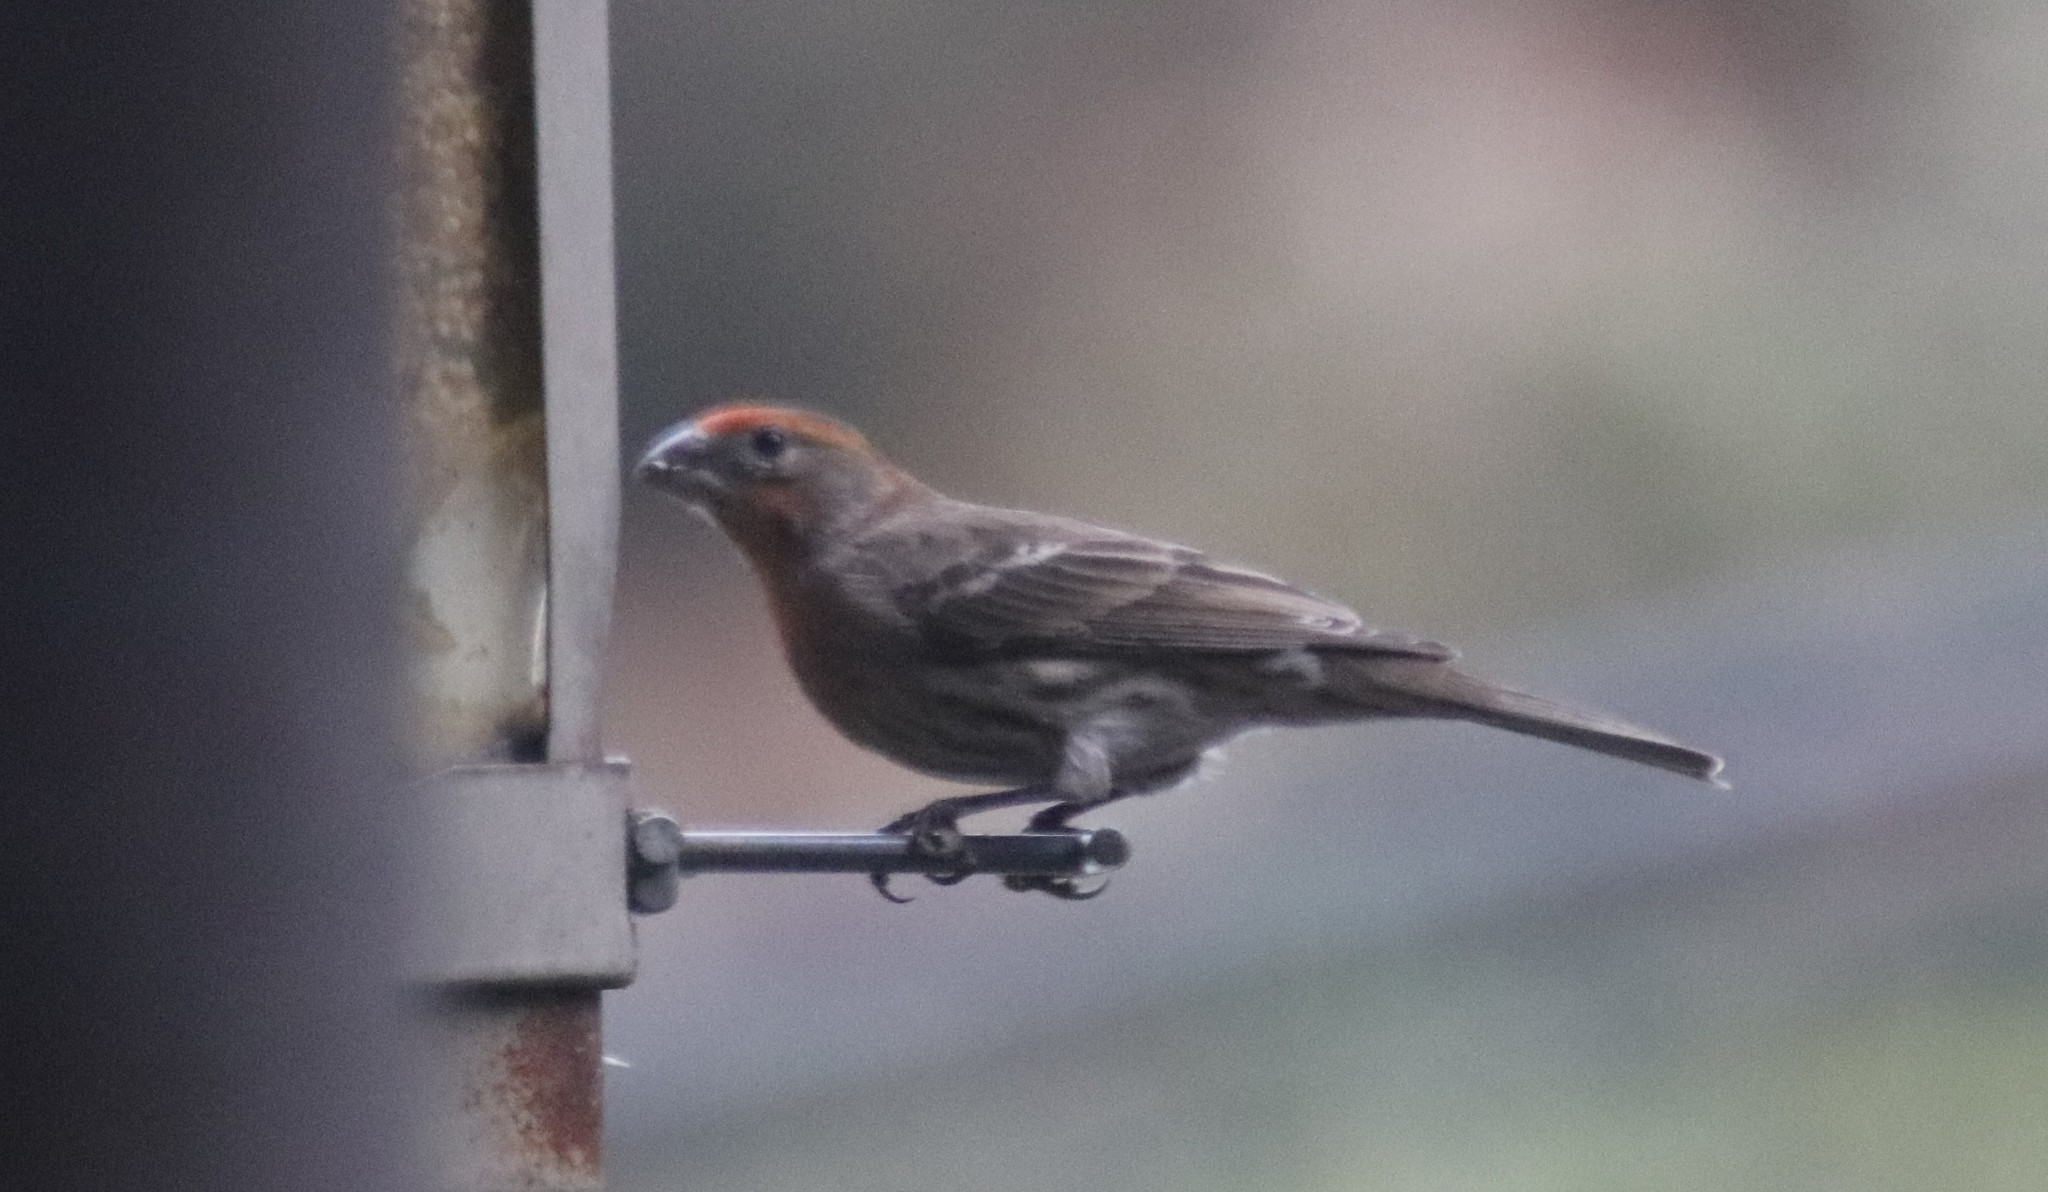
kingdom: Animalia
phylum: Chordata
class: Aves
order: Passeriformes
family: Fringillidae
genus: Haemorhous
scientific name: Haemorhous mexicanus
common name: House finch
